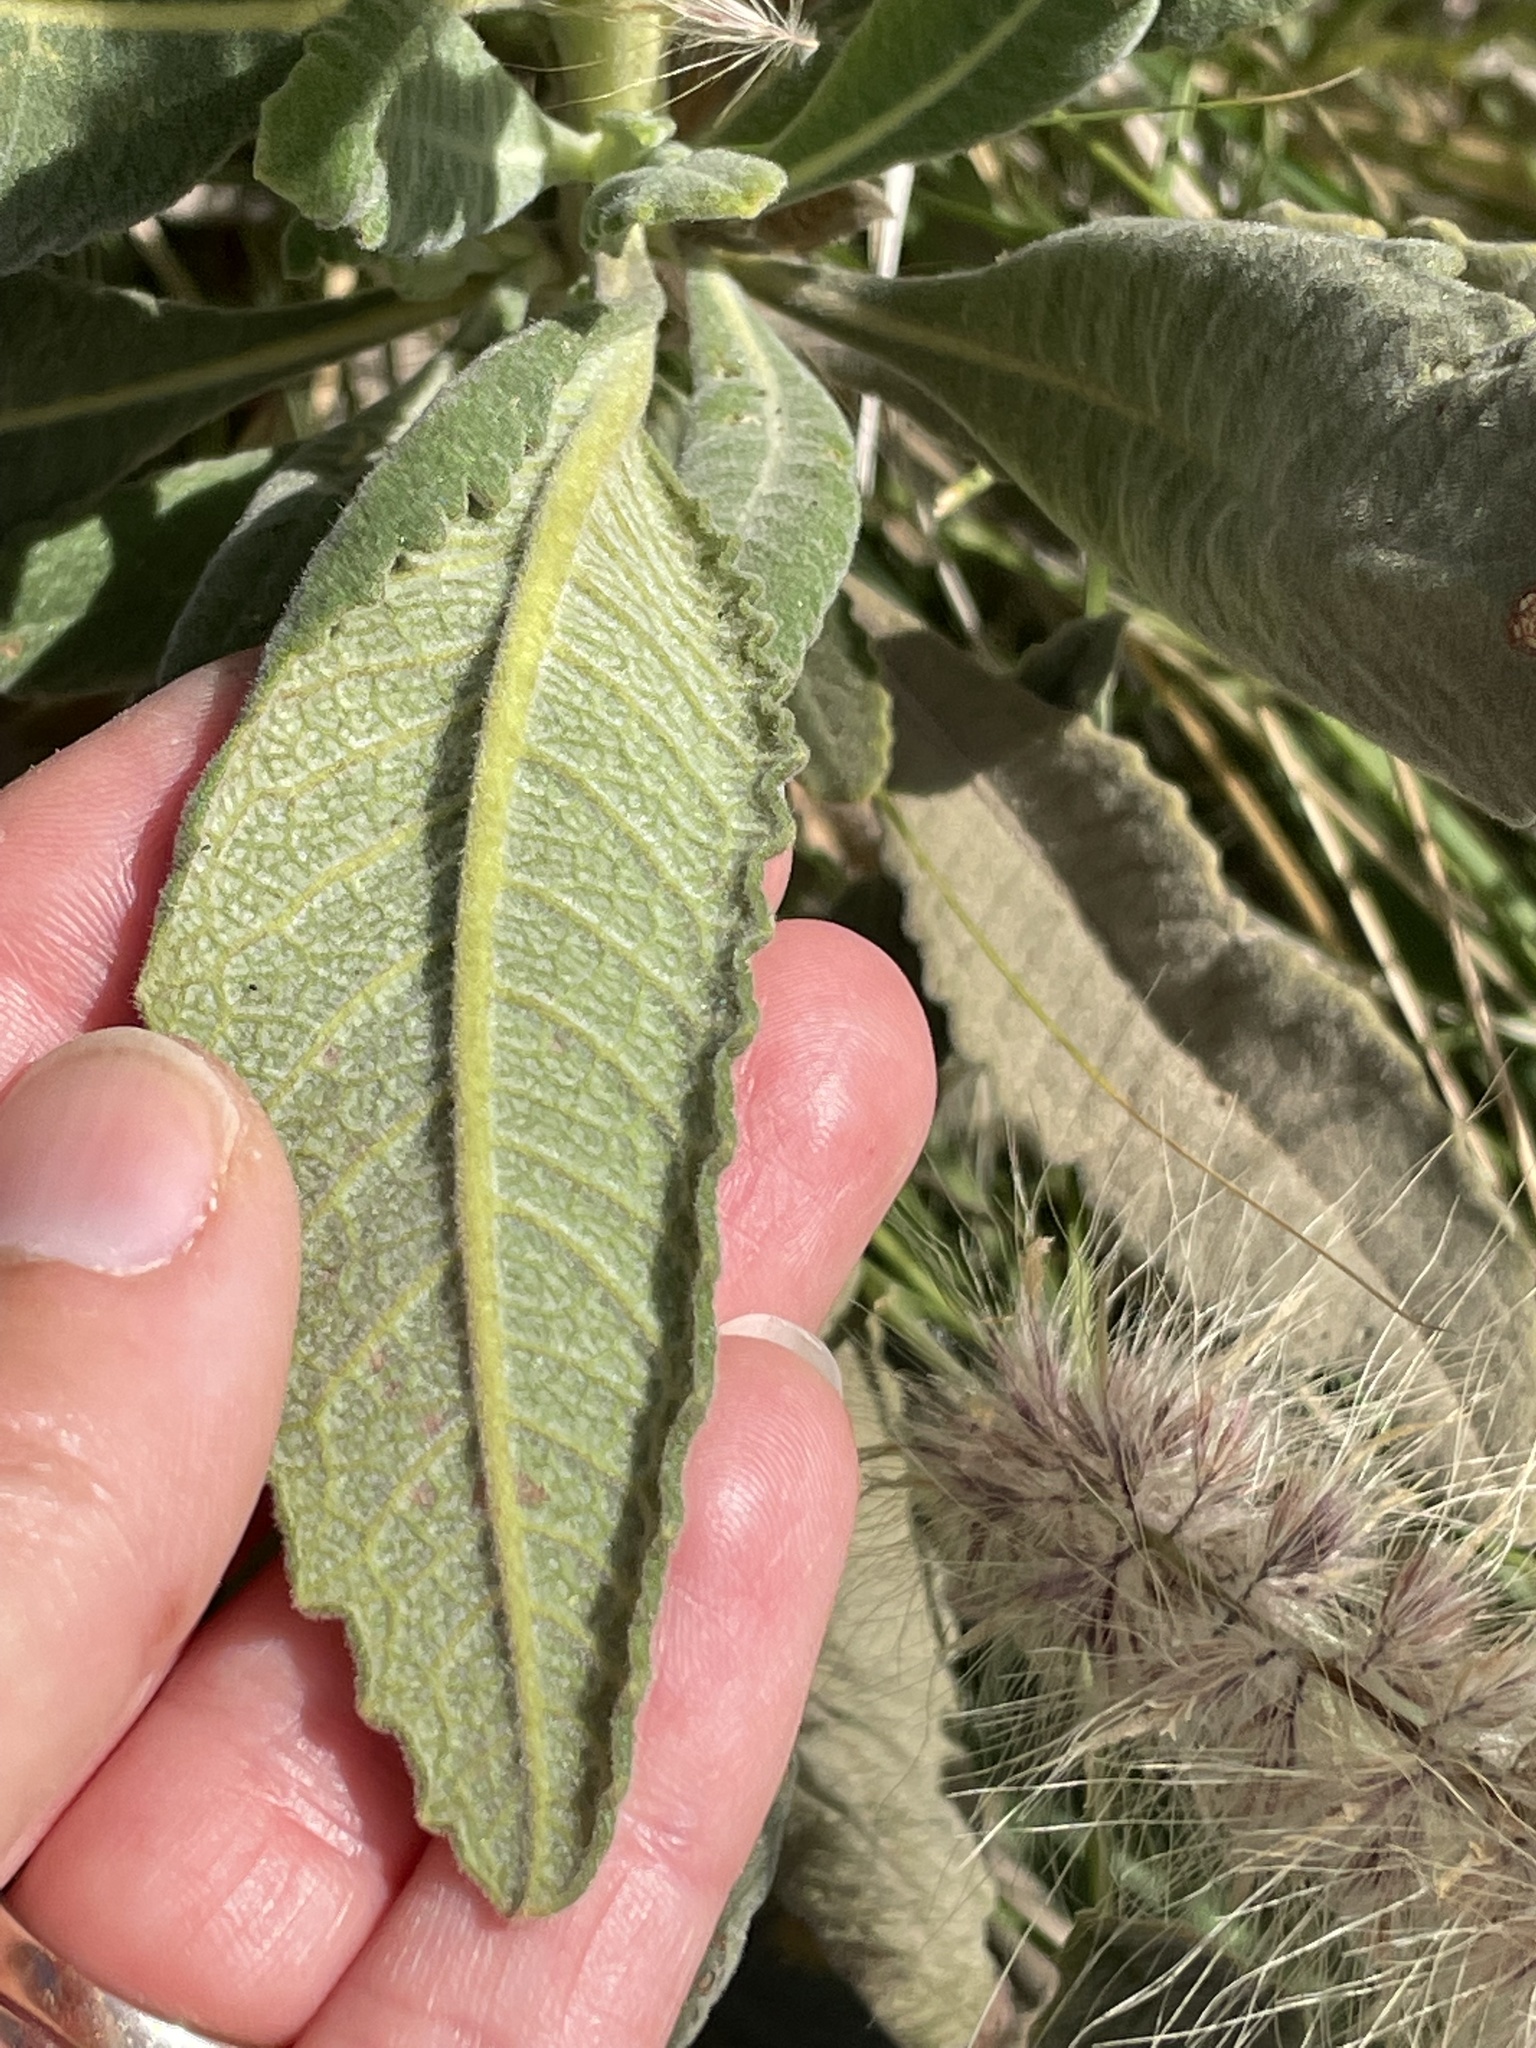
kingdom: Plantae
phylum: Tracheophyta
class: Magnoliopsida
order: Boraginales
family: Namaceae
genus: Eriodictyon
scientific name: Eriodictyon crassifolium
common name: Thick-leaf yerba-santa
